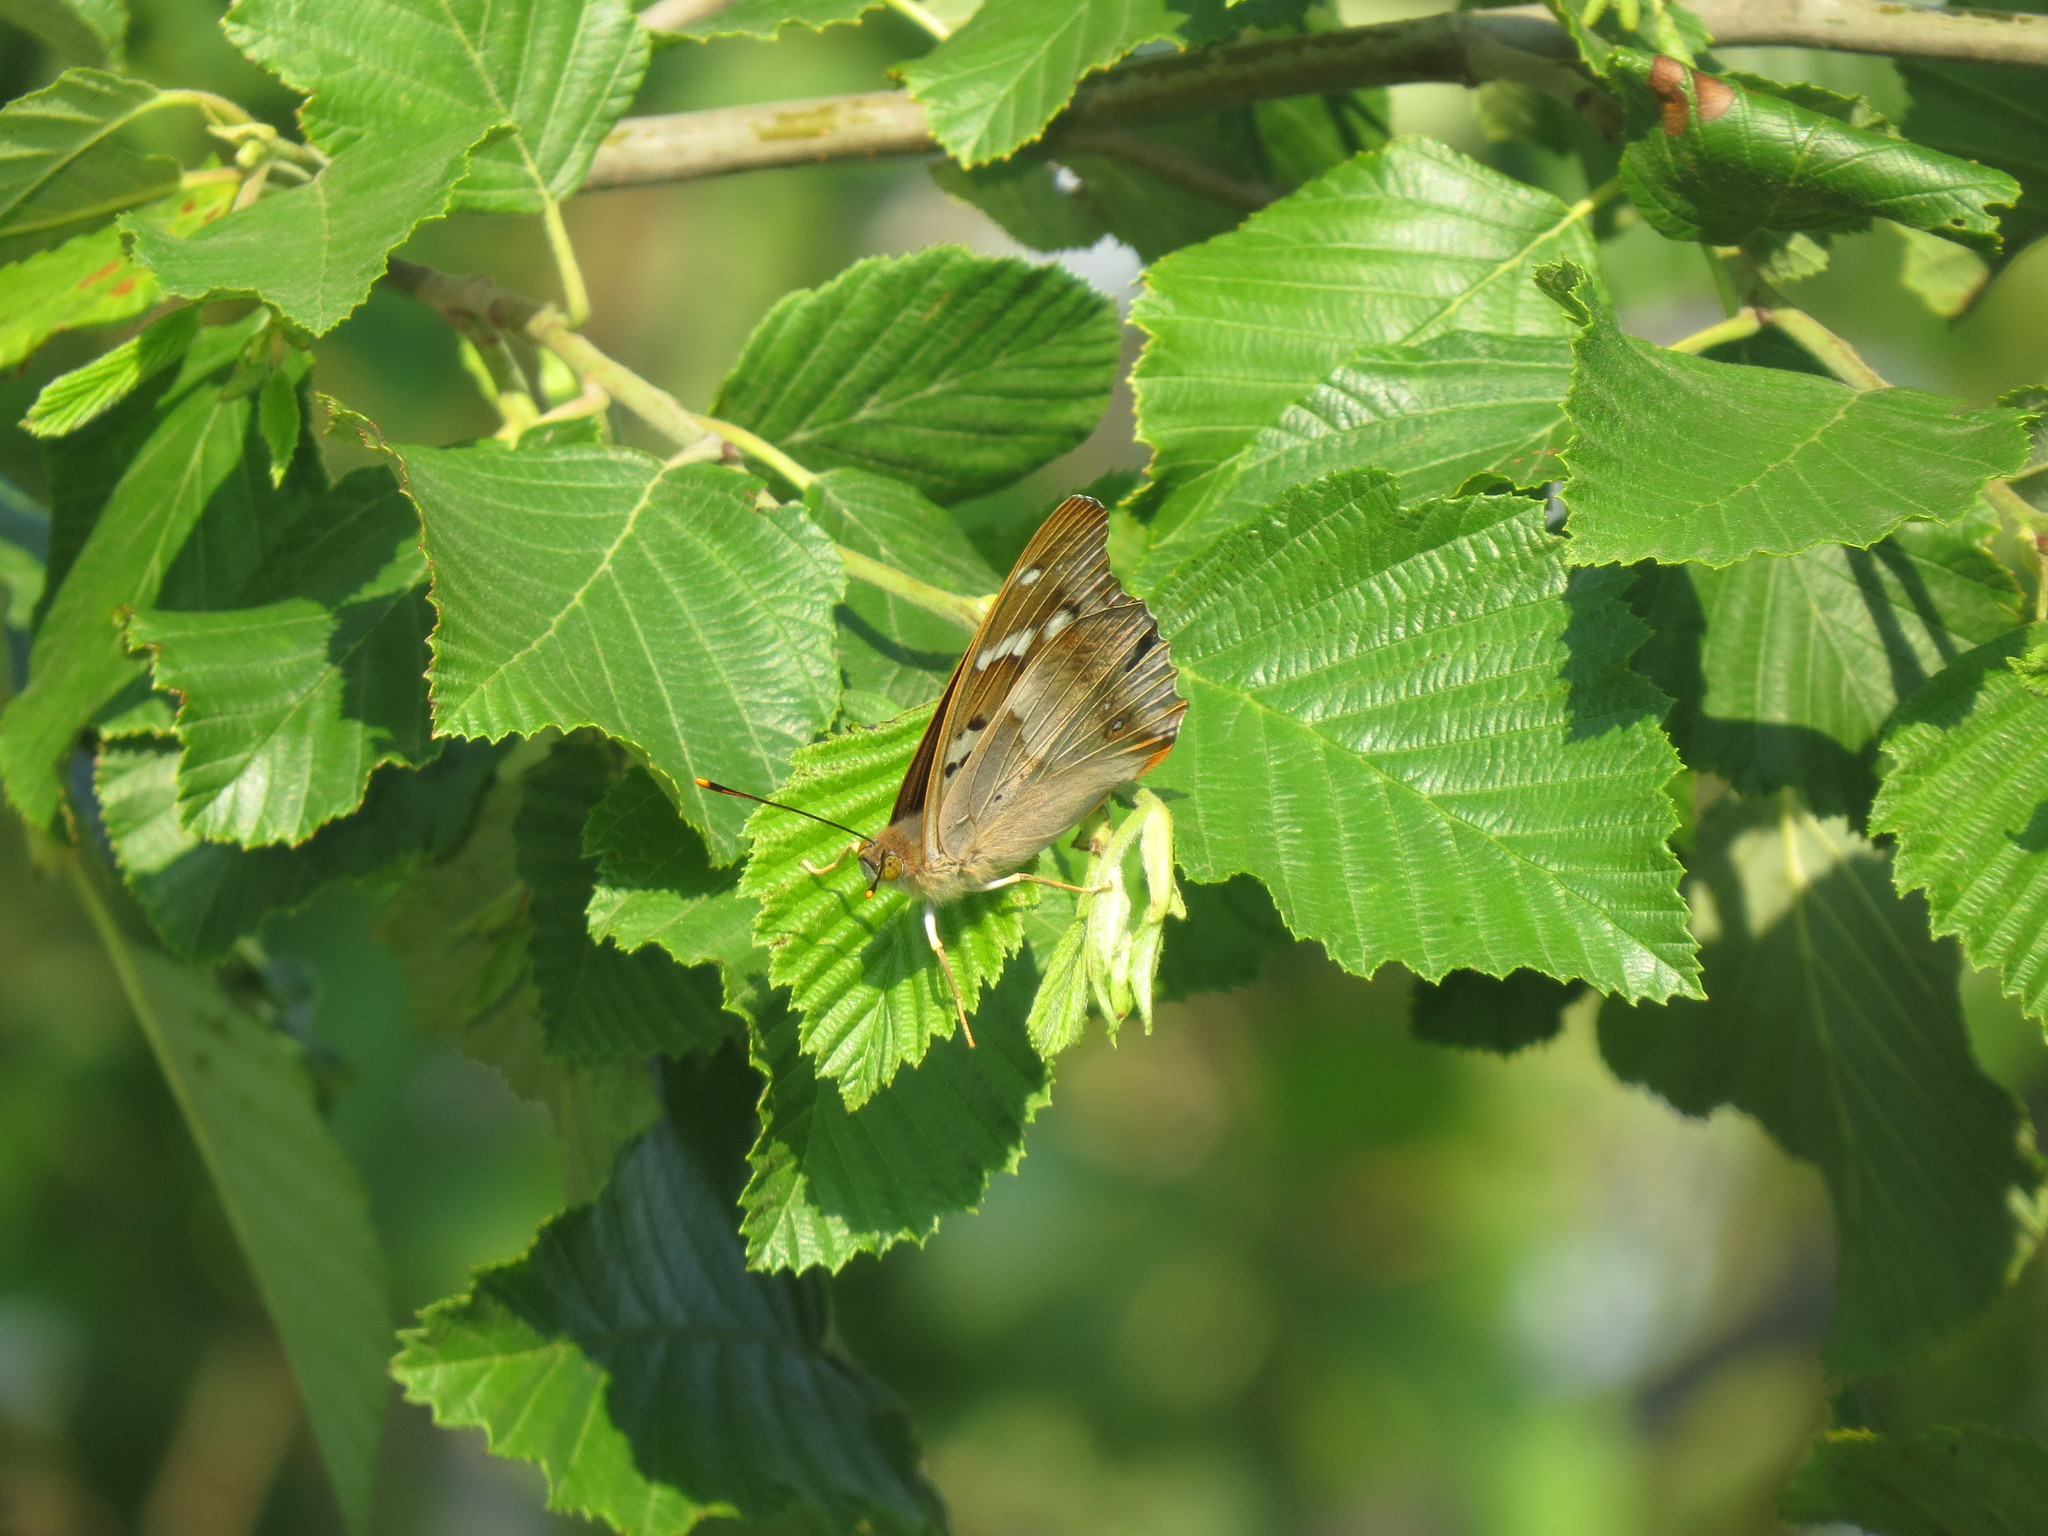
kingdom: Animalia
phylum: Arthropoda
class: Insecta
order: Lepidoptera
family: Nymphalidae
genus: Apatura
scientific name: Apatura ilia
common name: Lesser purple emperor
